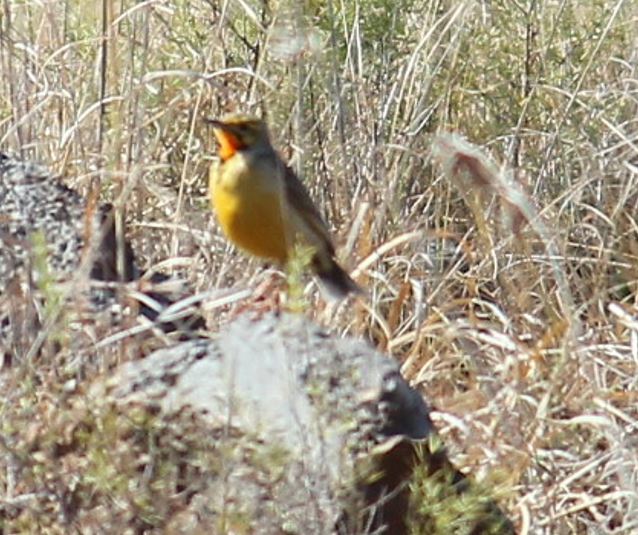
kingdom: Animalia
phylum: Chordata
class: Aves
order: Passeriformes
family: Motacillidae
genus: Macronyx
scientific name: Macronyx capensis
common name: Cape longclaw
